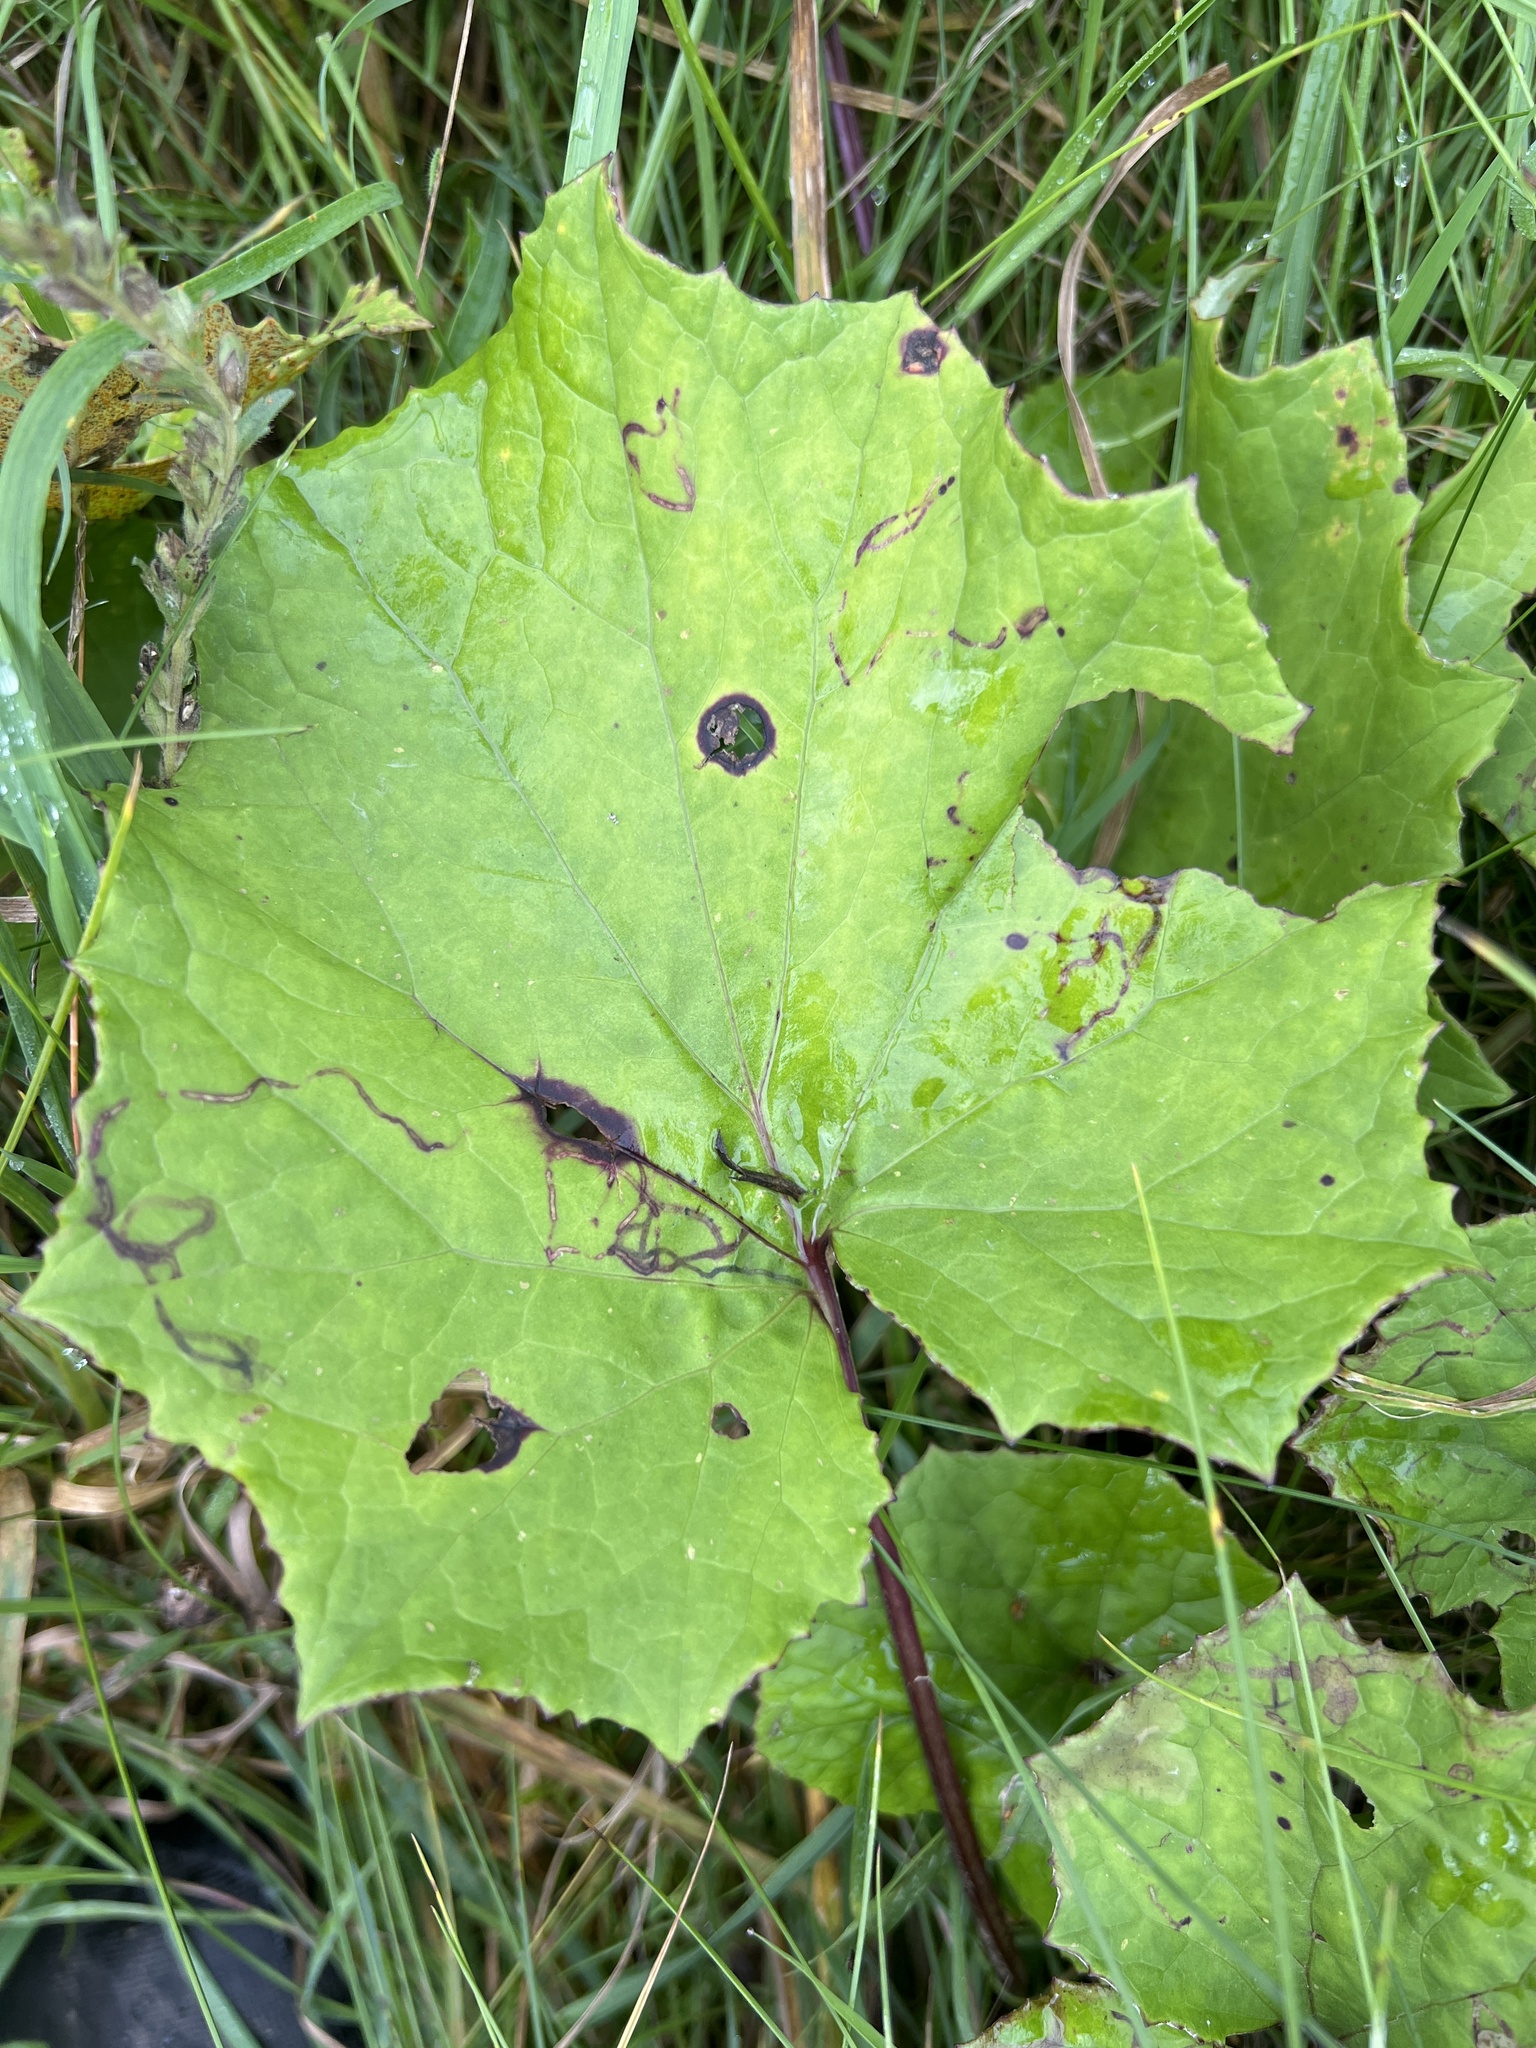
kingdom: Plantae
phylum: Tracheophyta
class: Magnoliopsida
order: Asterales
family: Asteraceae
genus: Tussilago
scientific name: Tussilago farfara
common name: Coltsfoot
